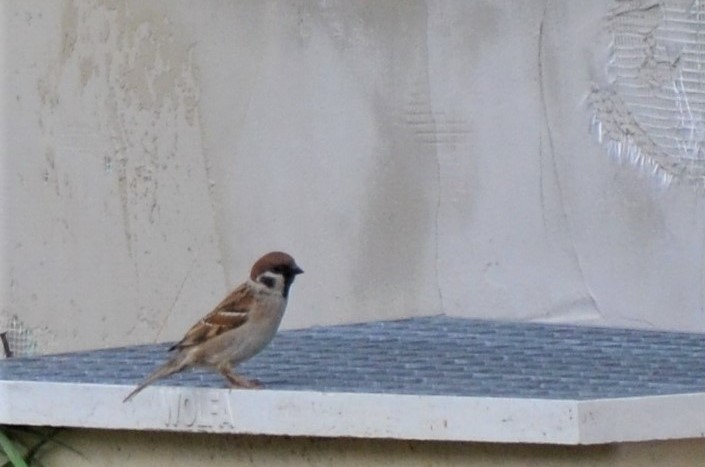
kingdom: Animalia
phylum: Chordata
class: Aves
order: Passeriformes
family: Passeridae
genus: Passer
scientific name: Passer montanus
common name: Eurasian tree sparrow
